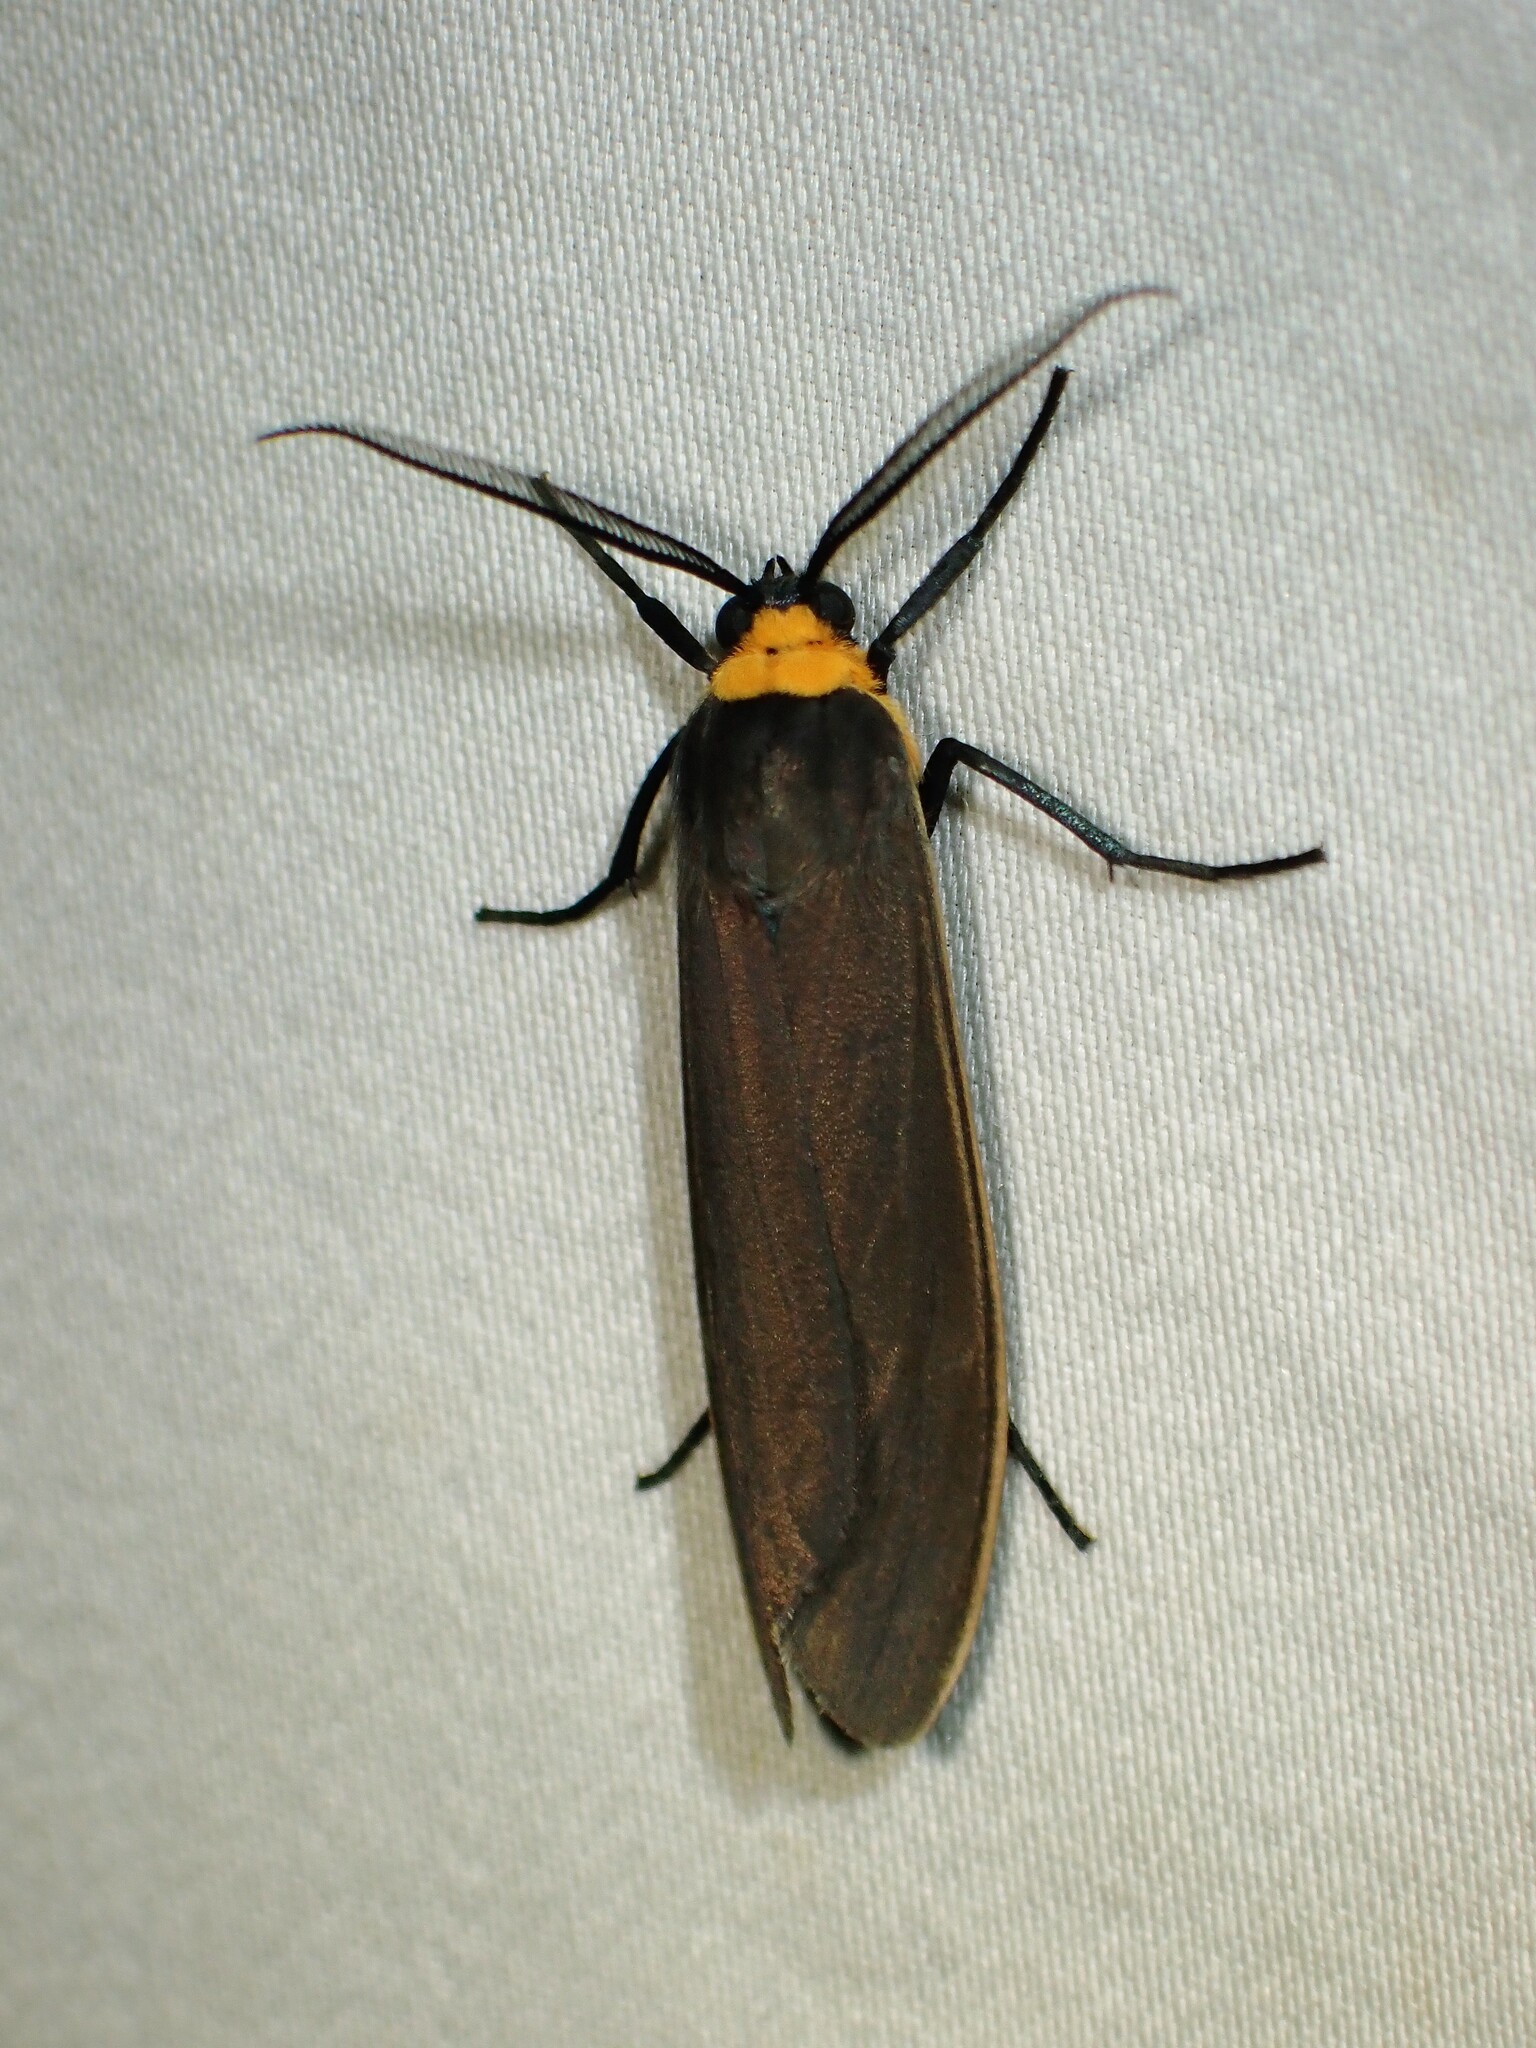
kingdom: Animalia
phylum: Arthropoda
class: Insecta
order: Lepidoptera
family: Erebidae
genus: Cisseps
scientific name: Cisseps fulvicollis
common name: Yellow-collared scape moth
